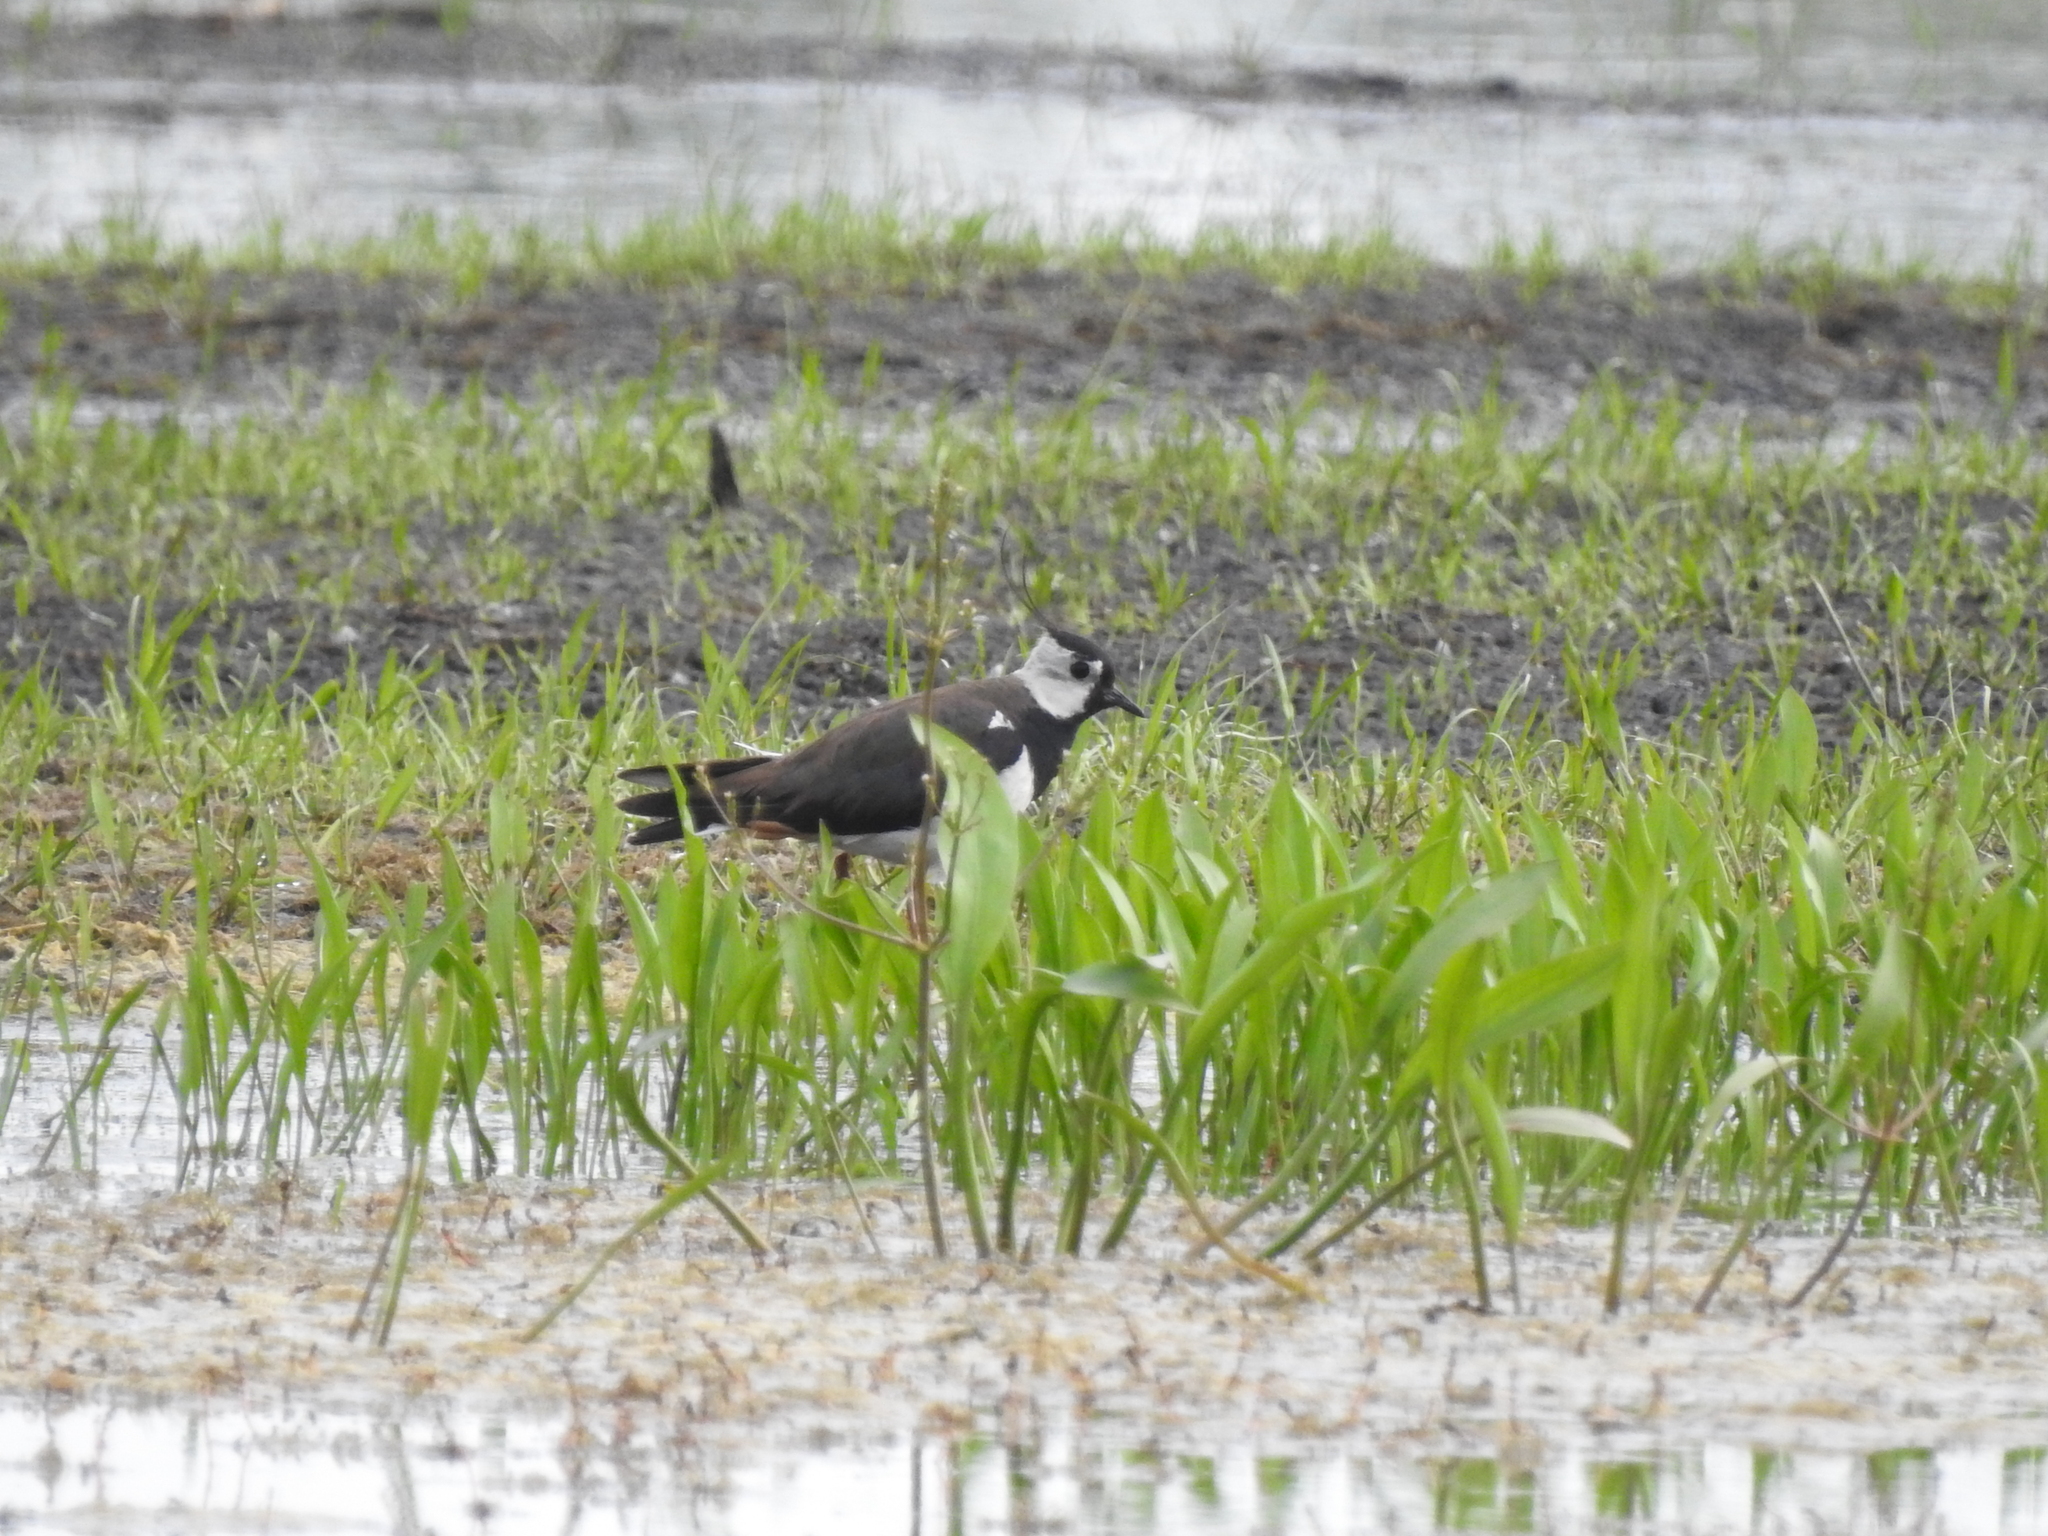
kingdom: Animalia
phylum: Chordata
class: Aves
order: Charadriiformes
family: Charadriidae
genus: Vanellus
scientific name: Vanellus vanellus
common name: Northern lapwing
